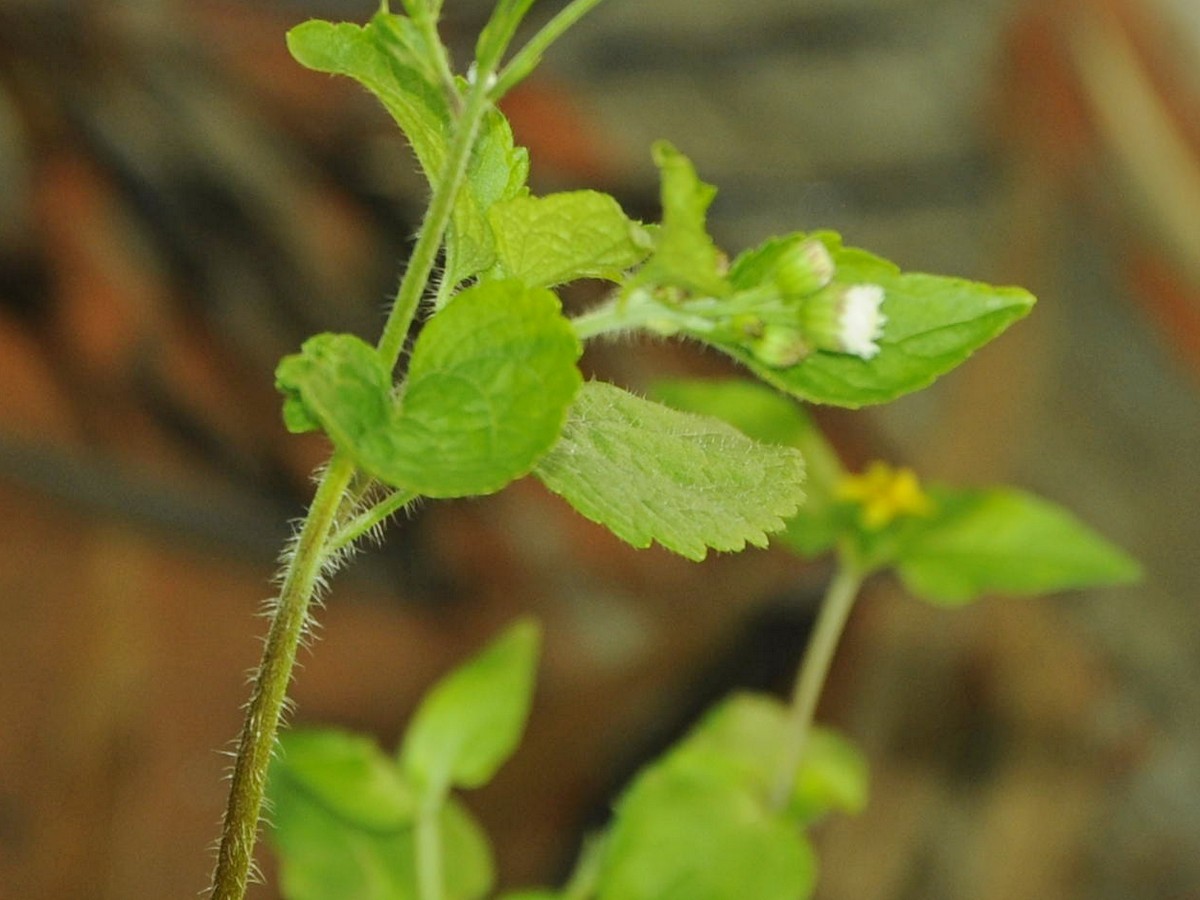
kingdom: Plantae
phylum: Tracheophyta
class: Magnoliopsida
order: Asterales
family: Asteraceae
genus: Ageratum
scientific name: Ageratum conyzoides
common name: Tropical whiteweed
